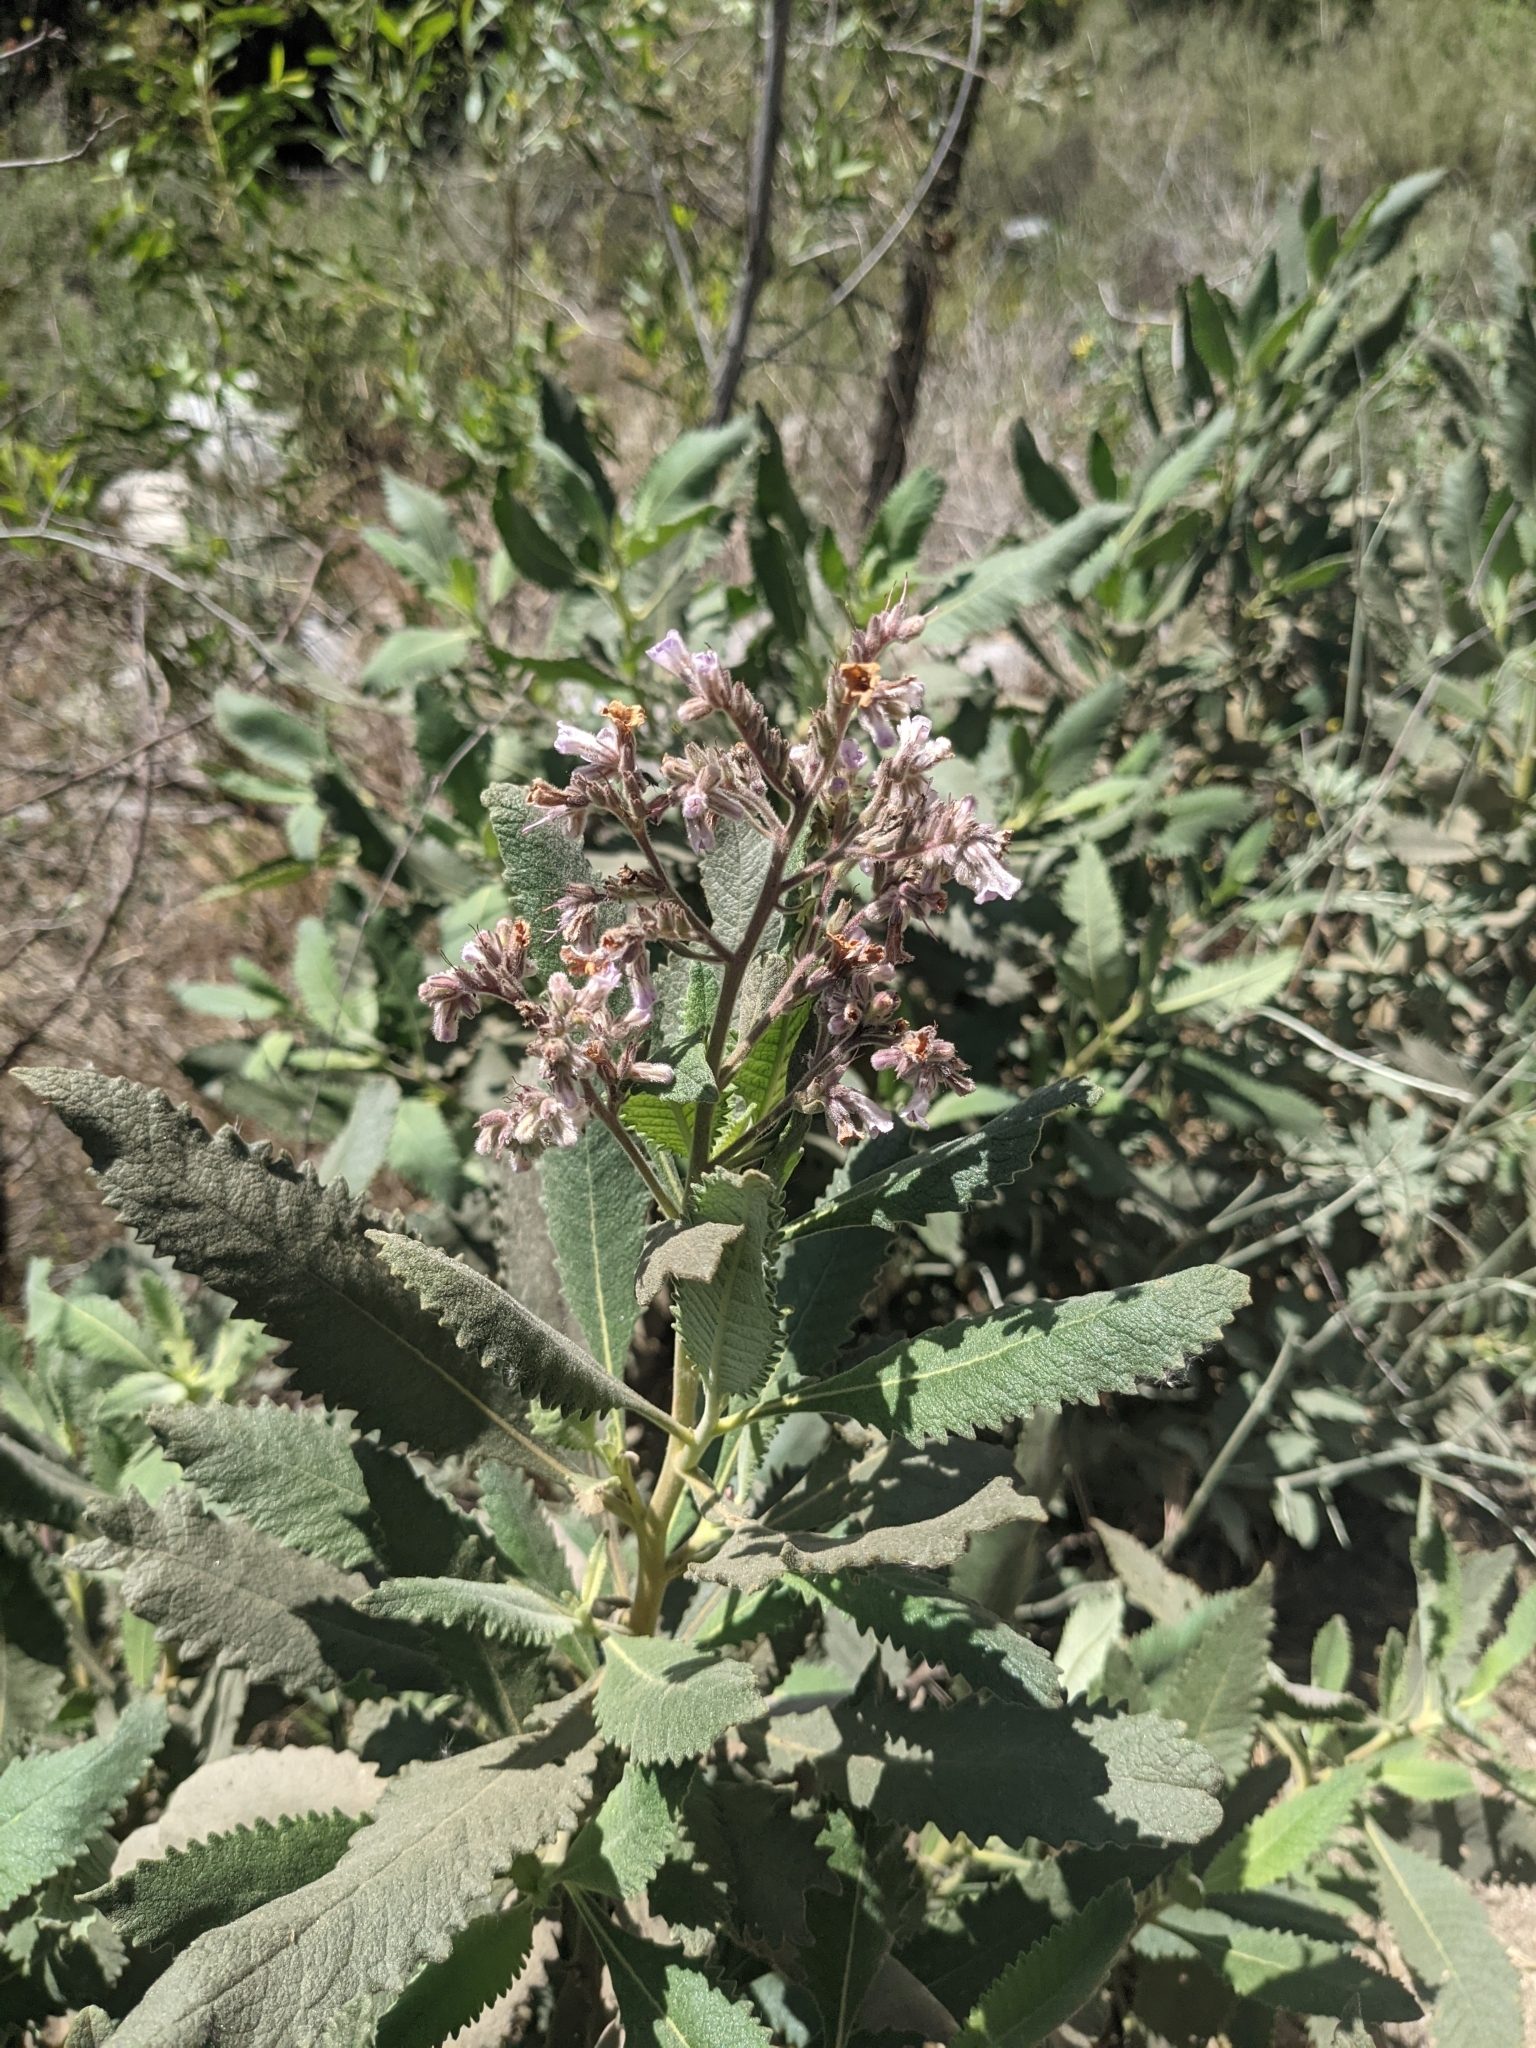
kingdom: Plantae
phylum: Tracheophyta
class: Magnoliopsida
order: Boraginales
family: Namaceae
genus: Eriodictyon
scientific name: Eriodictyon crassifolium
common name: Thick-leaf yerba-santa
